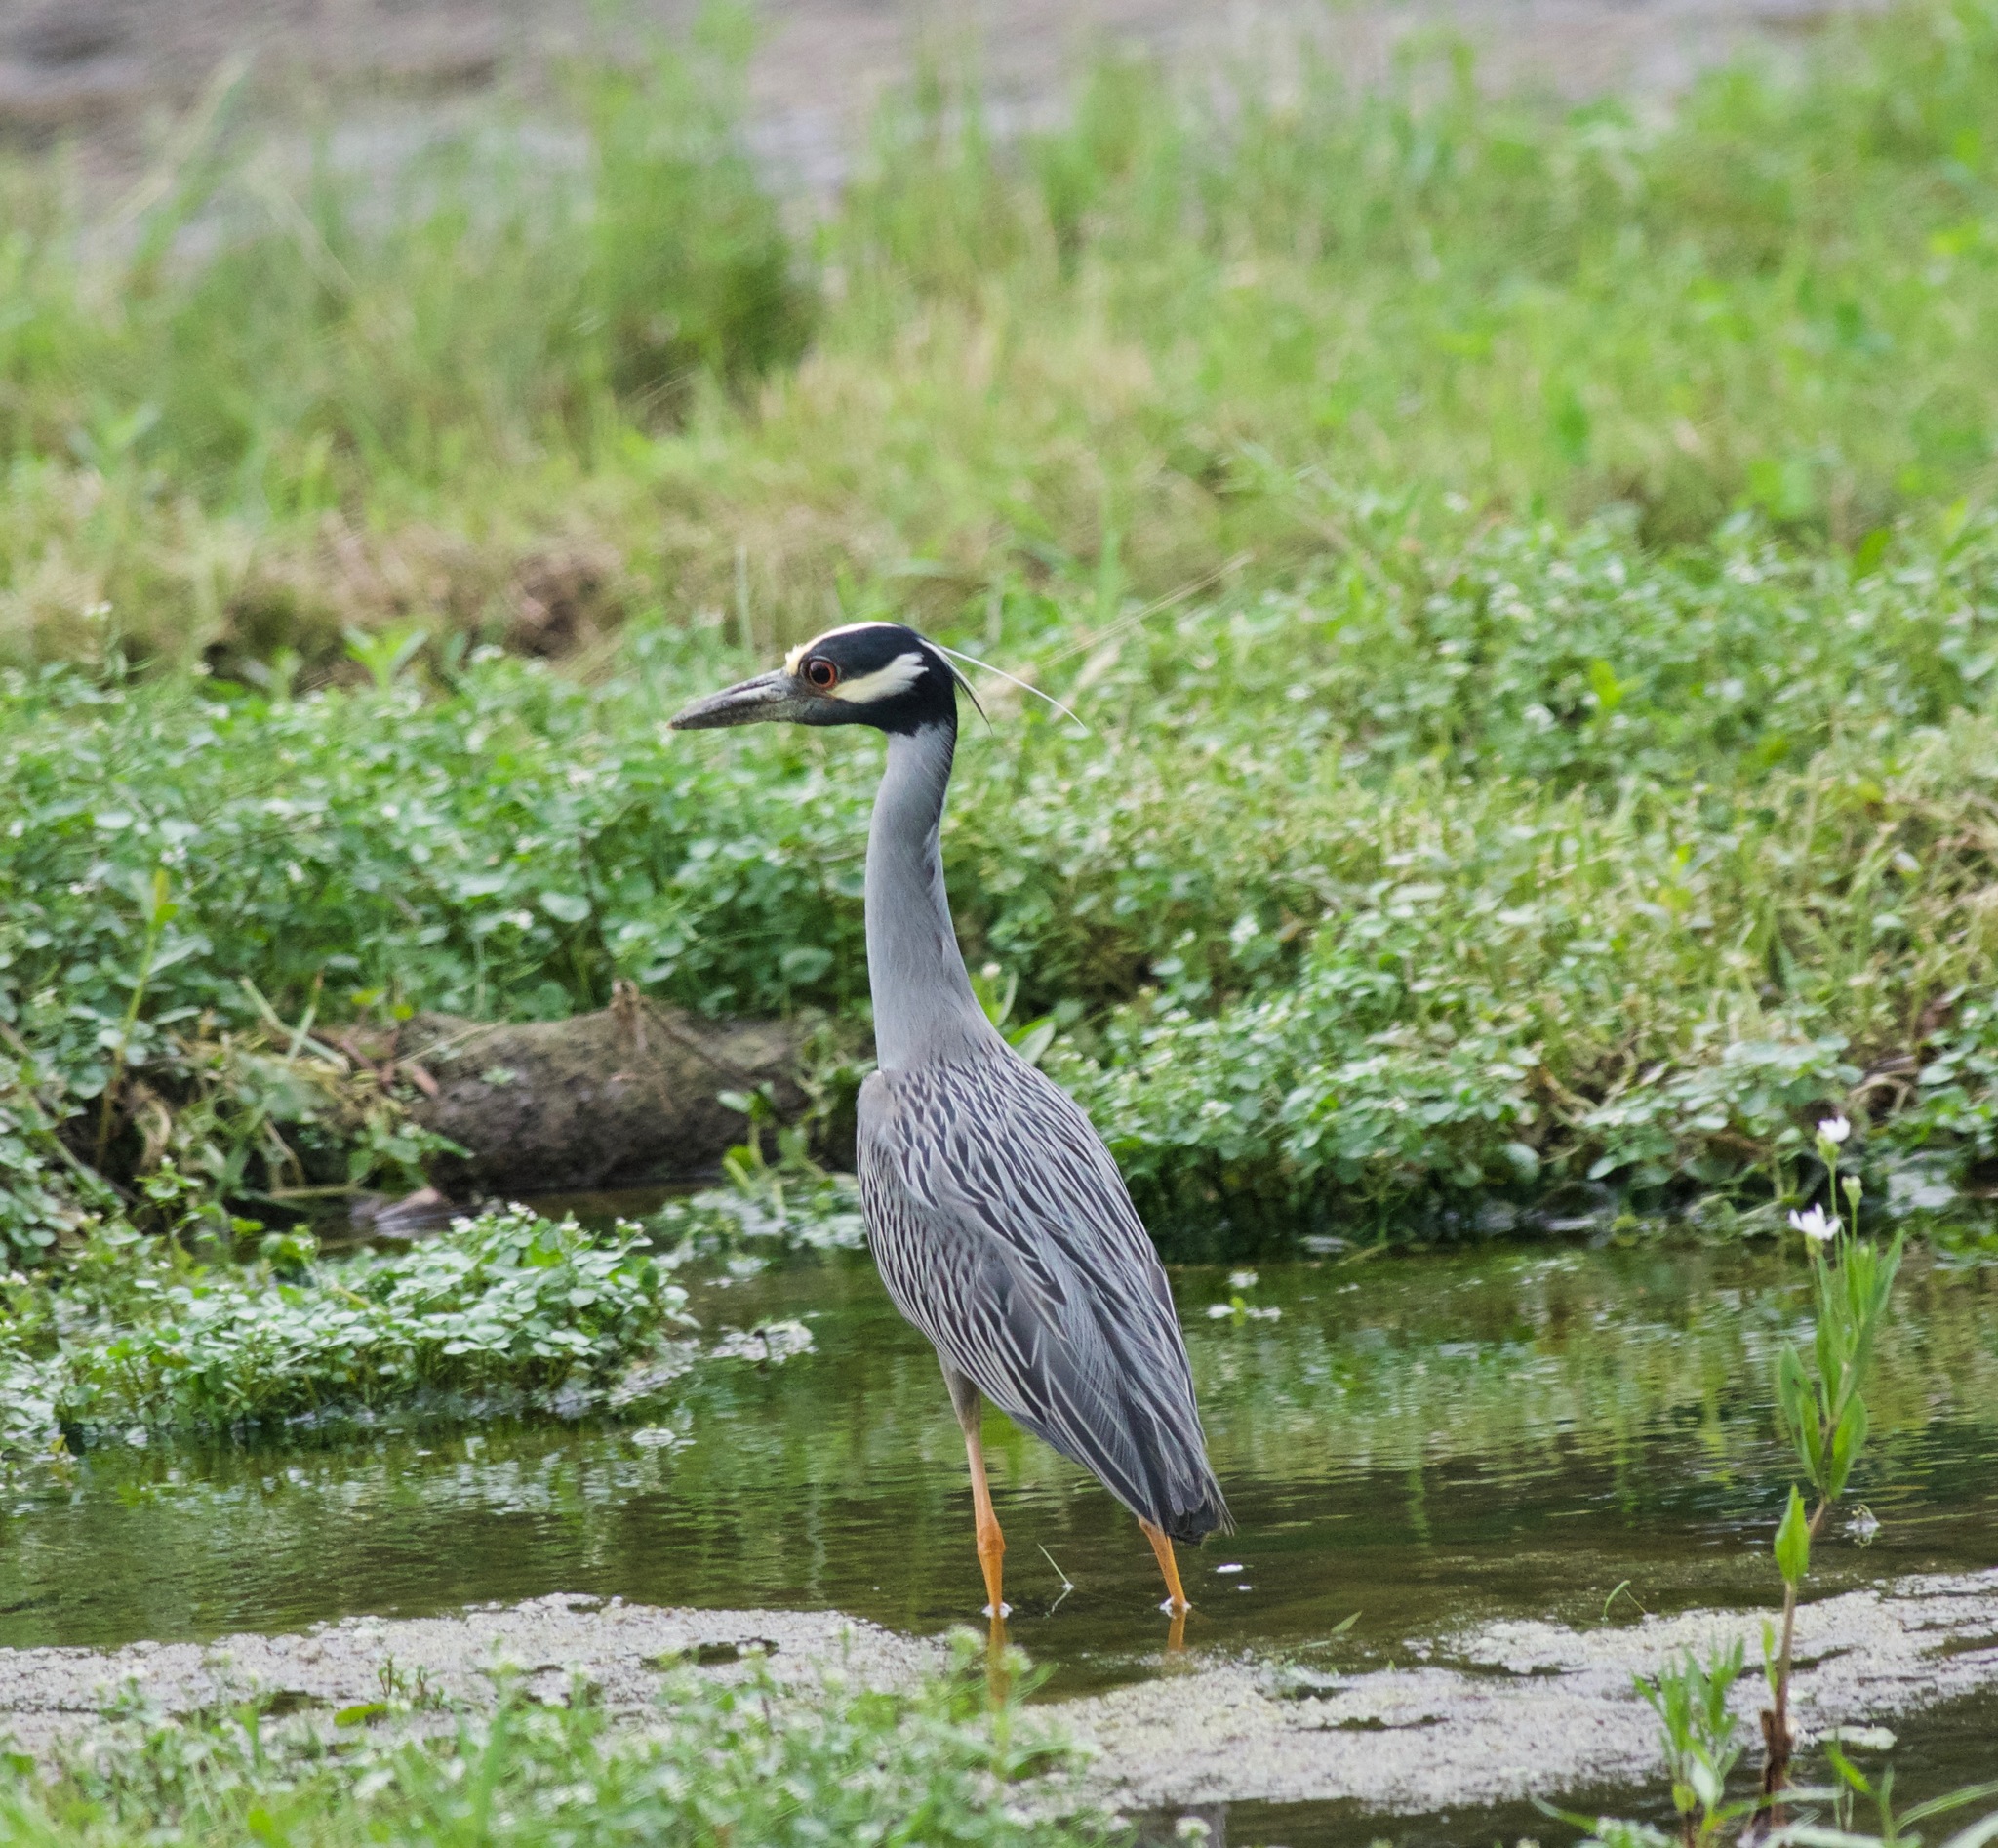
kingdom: Animalia
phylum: Chordata
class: Aves
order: Pelecaniformes
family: Ardeidae
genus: Nyctanassa
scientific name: Nyctanassa violacea
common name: Yellow-crowned night heron
